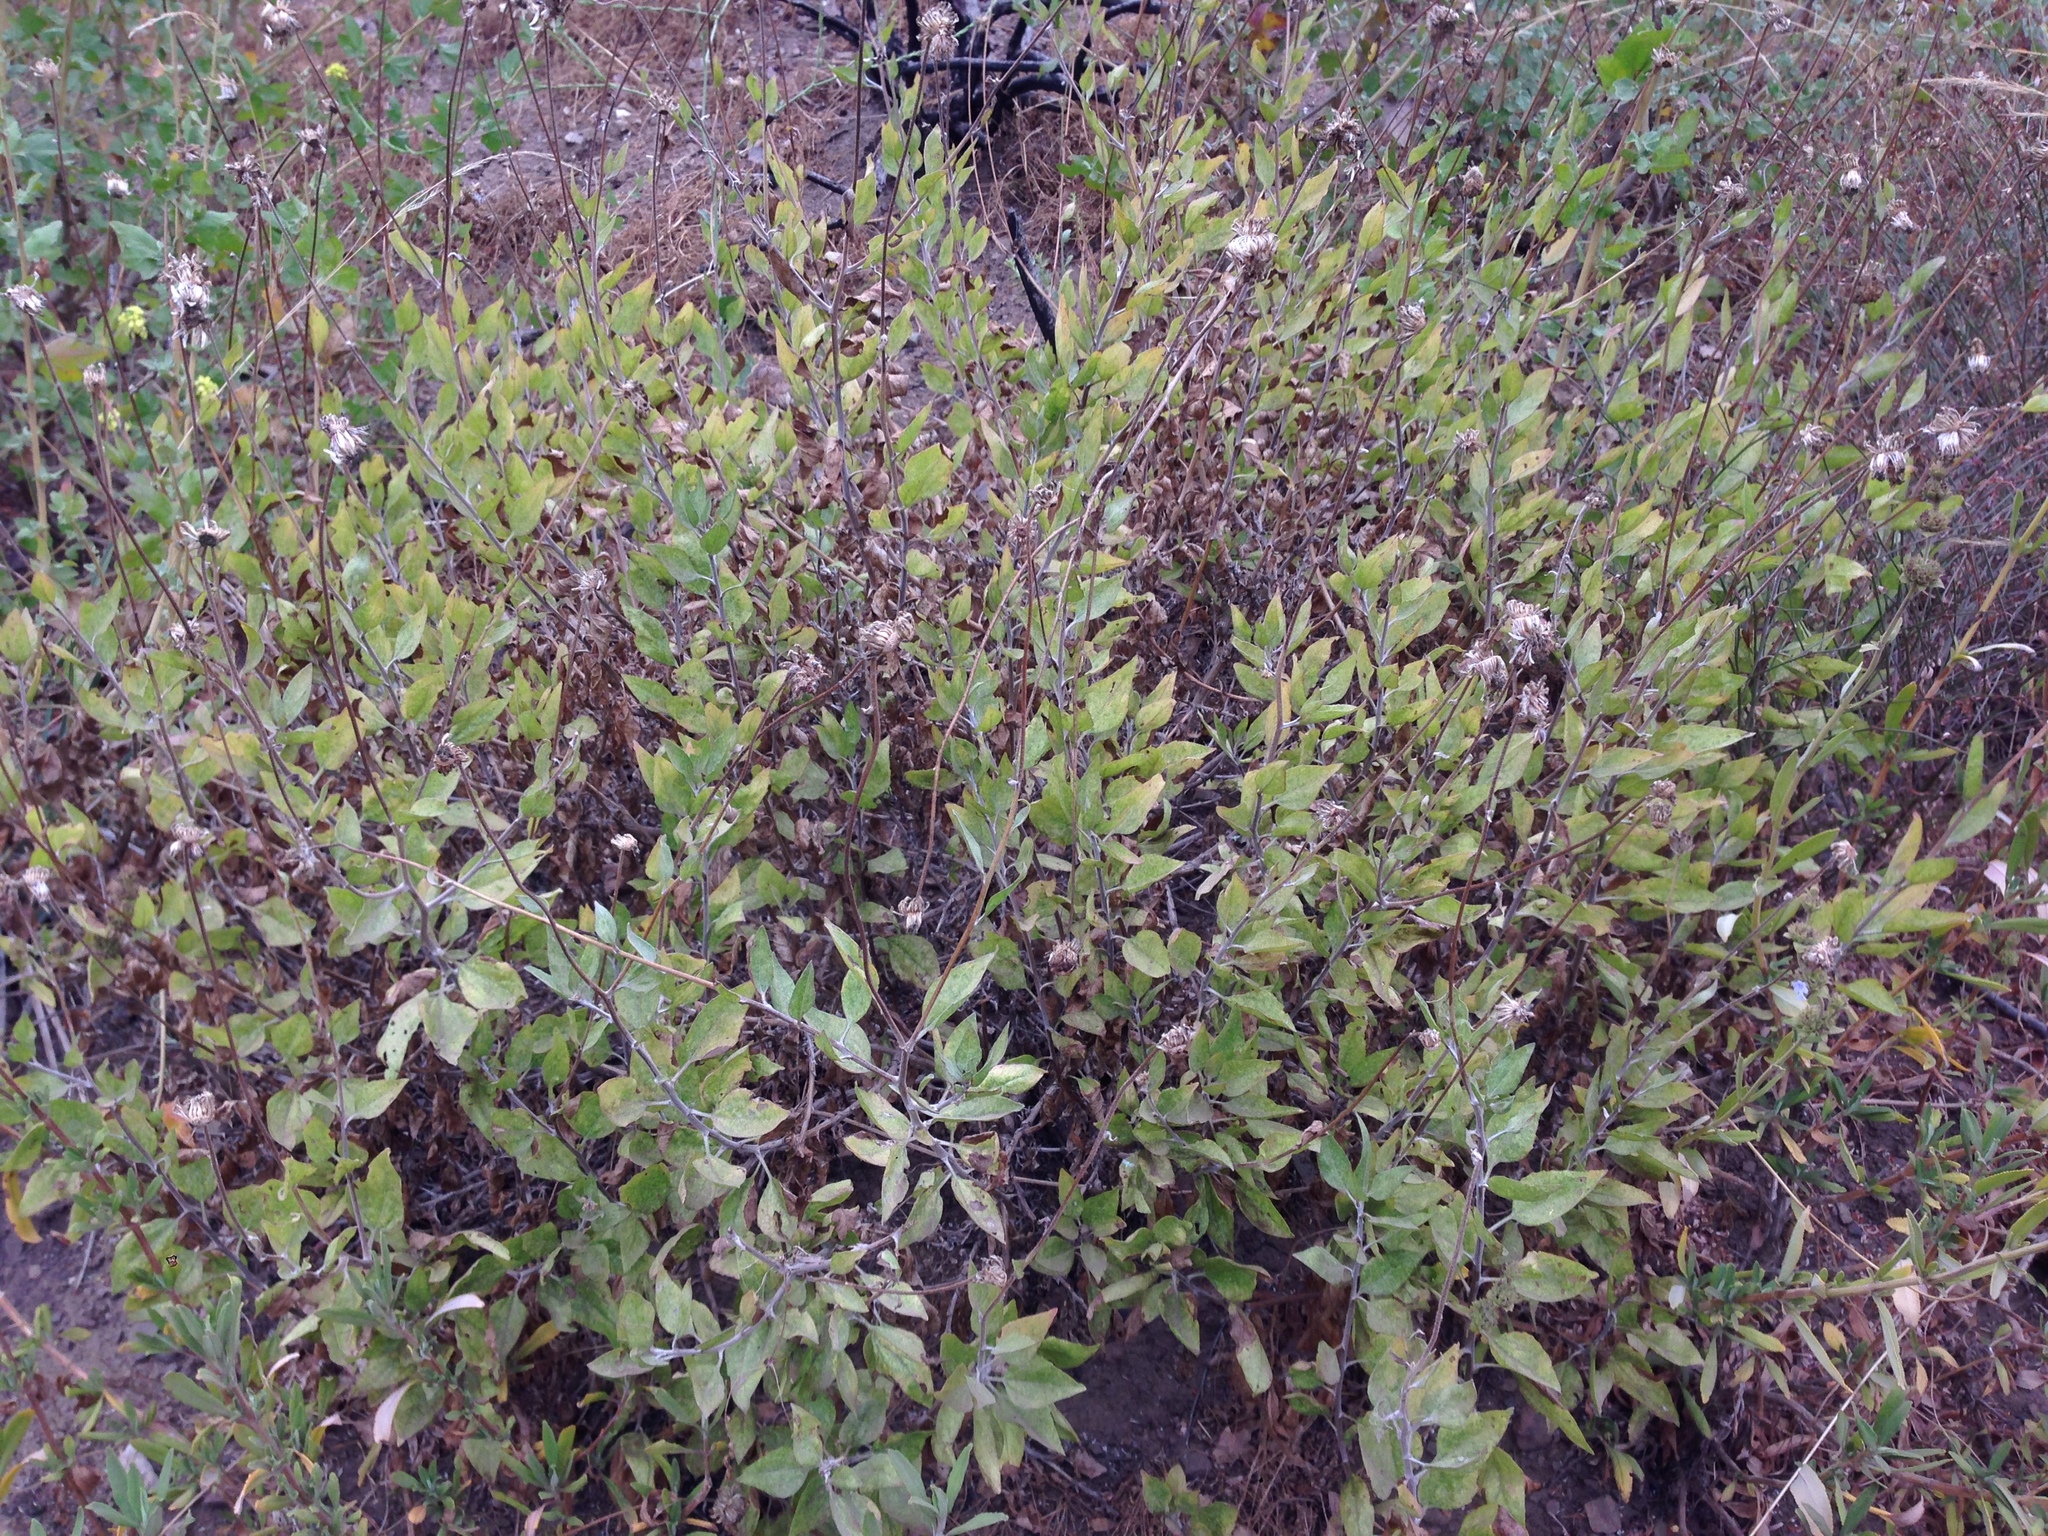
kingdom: Plantae
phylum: Tracheophyta
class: Magnoliopsida
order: Asterales
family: Asteraceae
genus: Encelia
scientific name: Encelia californica
